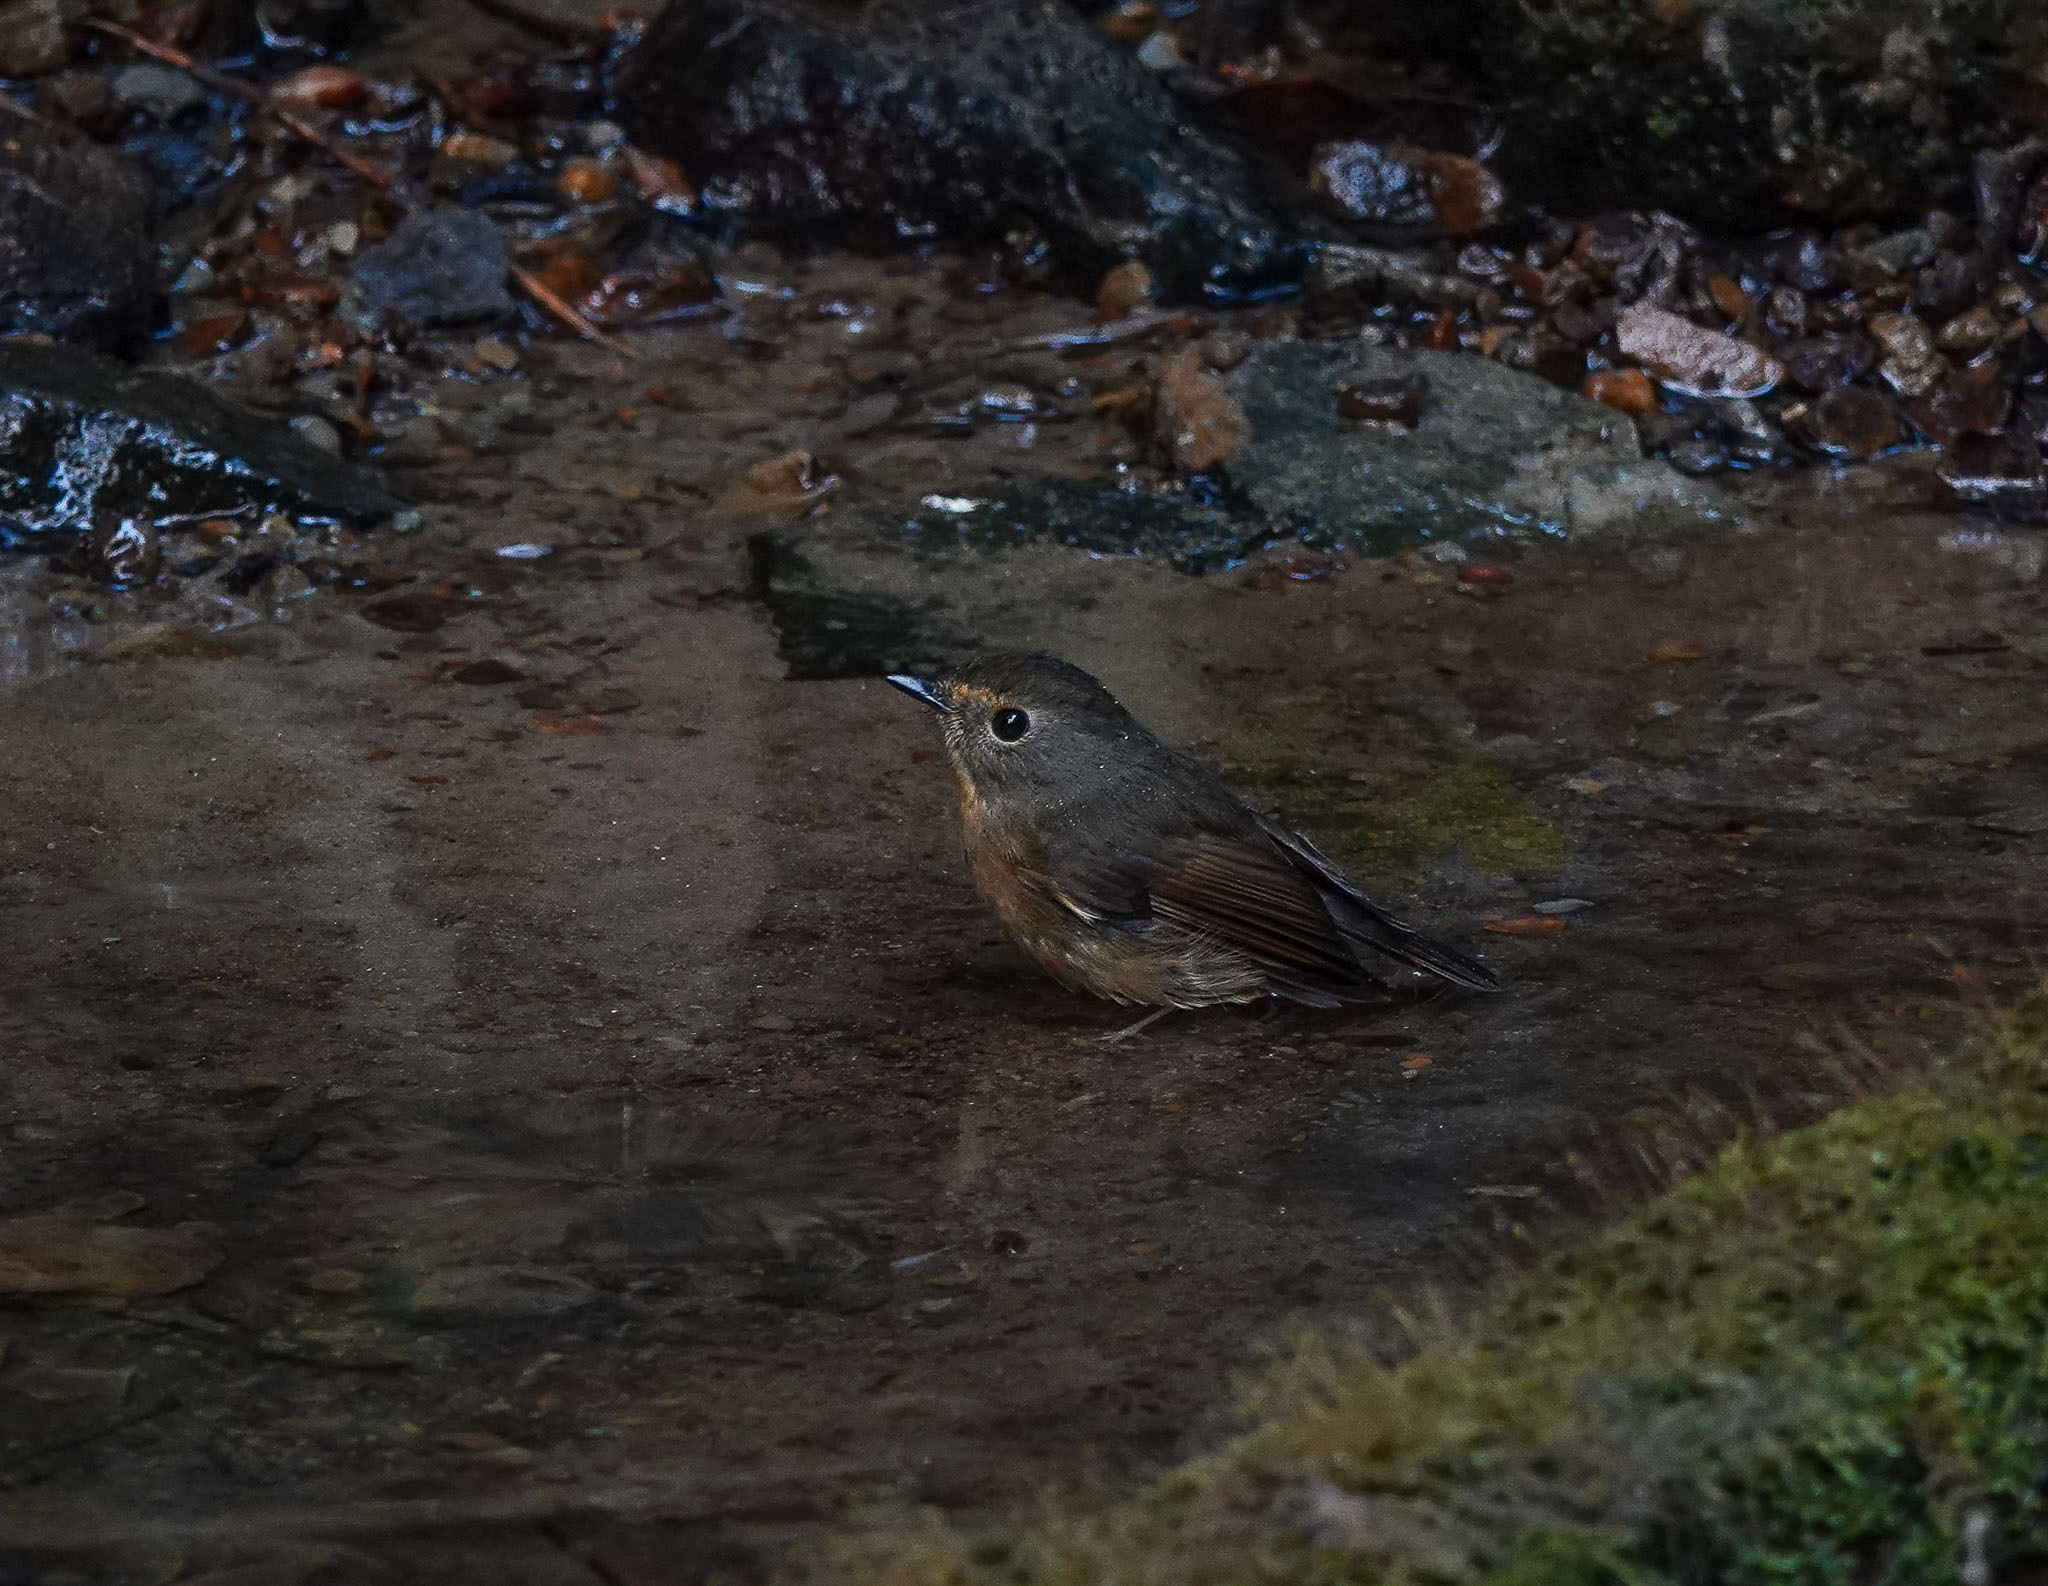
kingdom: Animalia
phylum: Chordata
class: Aves
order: Passeriformes
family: Muscicapidae
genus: Ficedula
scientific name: Ficedula hyperythra
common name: Snowy-browed flycatcher
